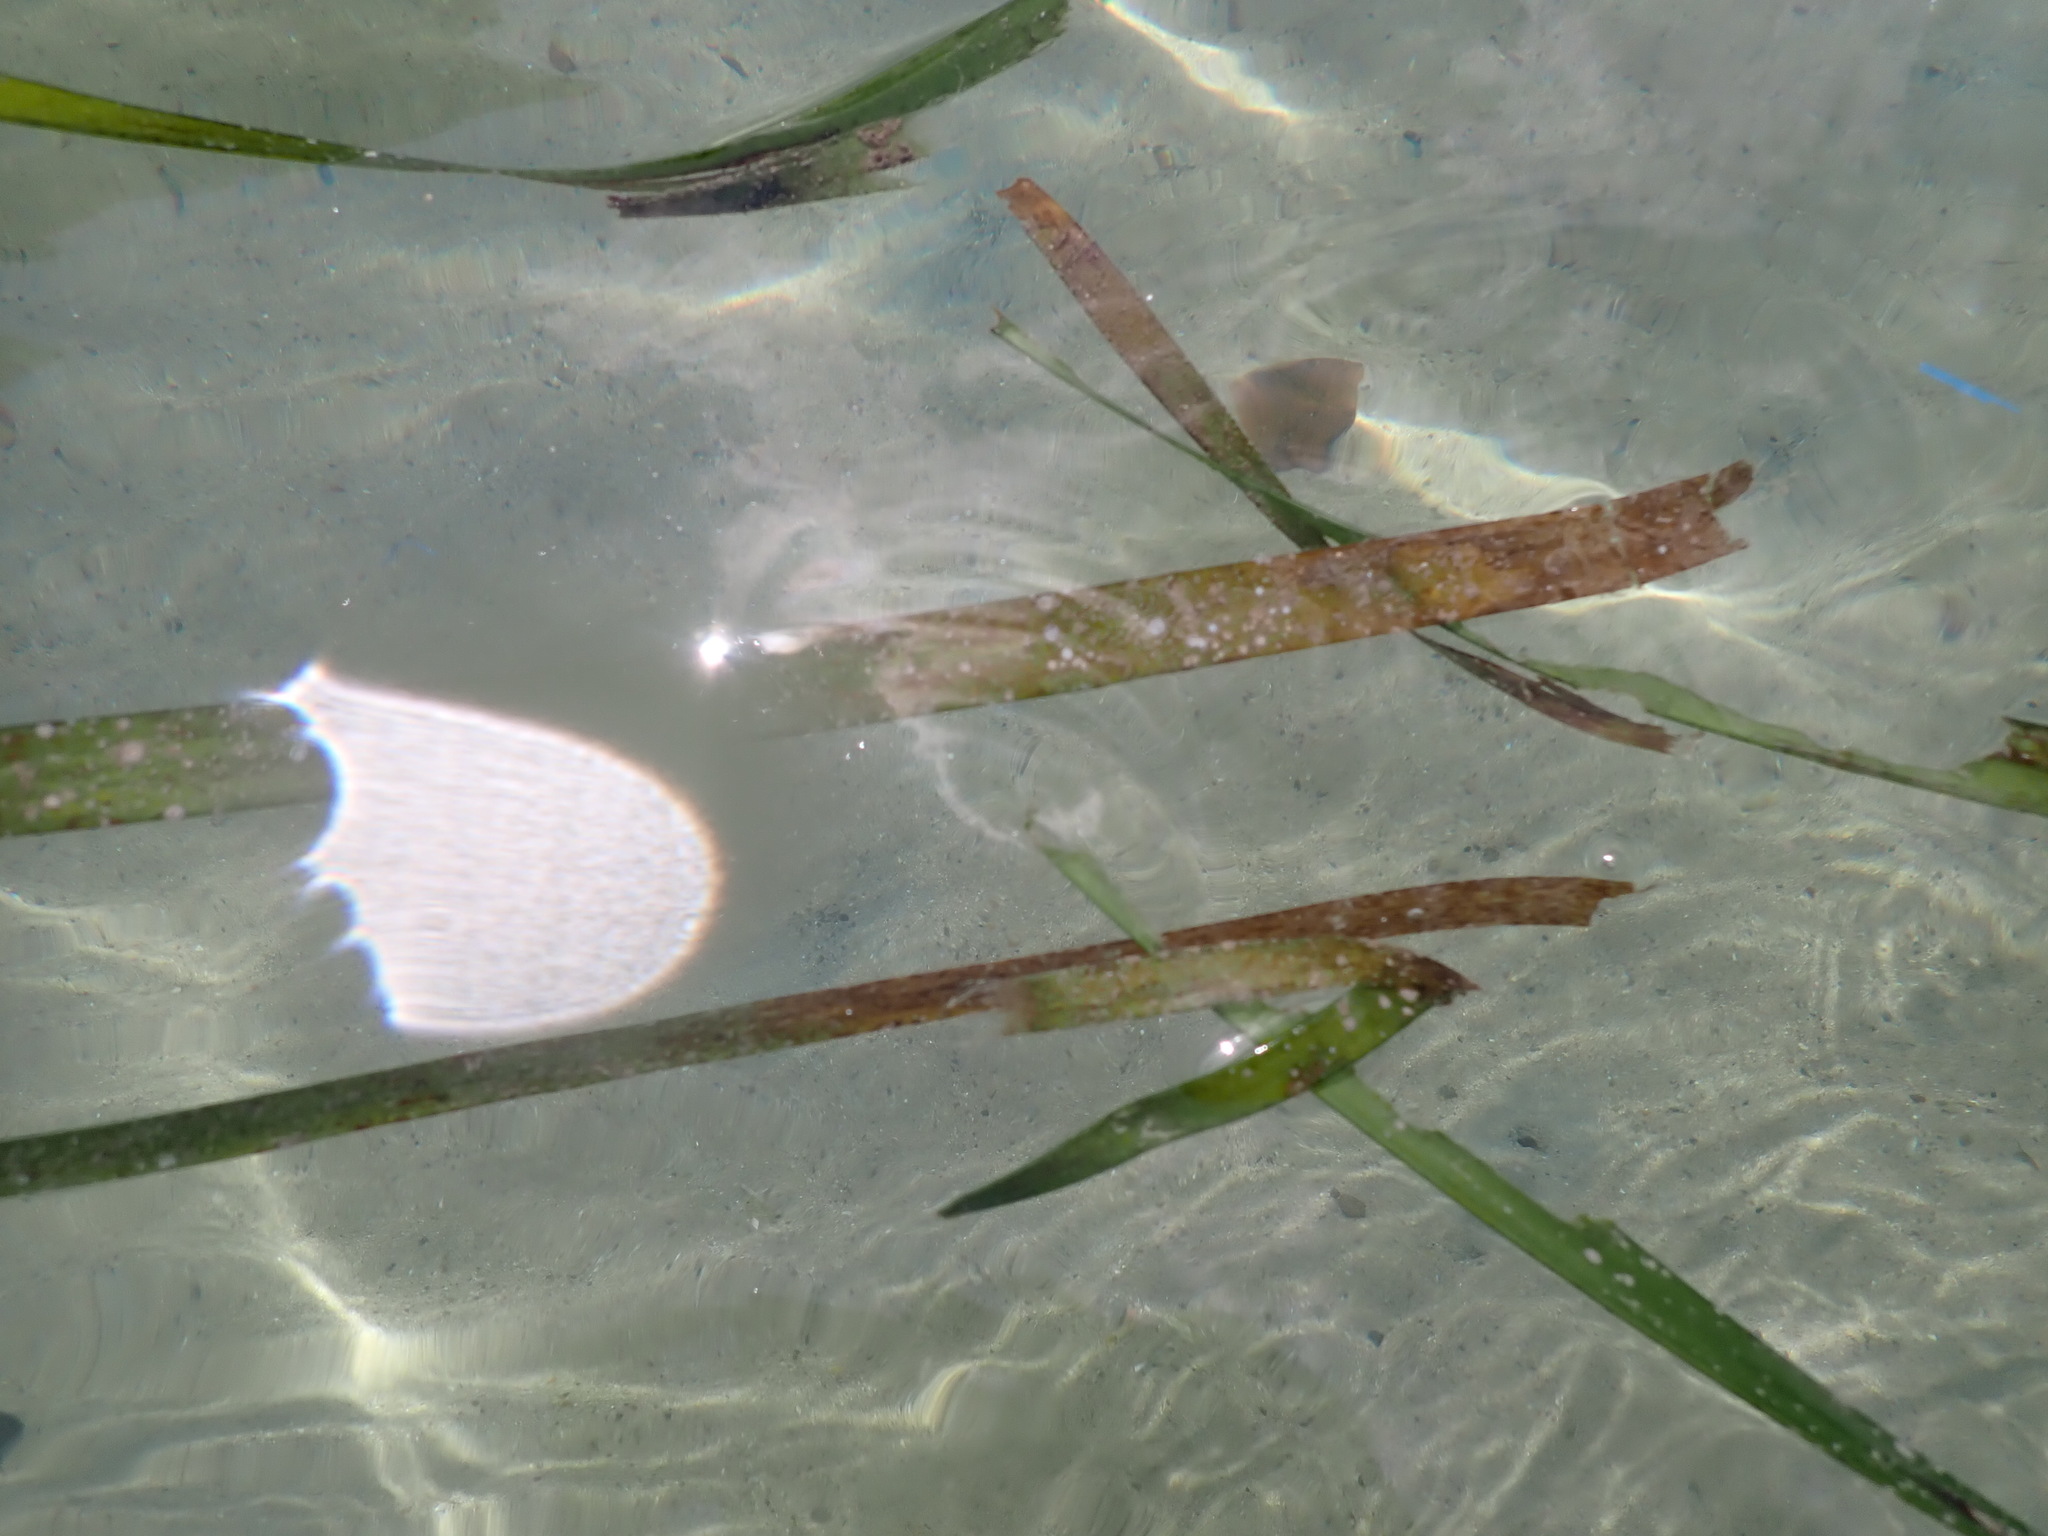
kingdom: Plantae
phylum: Tracheophyta
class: Liliopsida
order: Alismatales
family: Hydrocharitaceae
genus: Enhalus
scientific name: Enhalus acoroides
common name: Species code: ea
